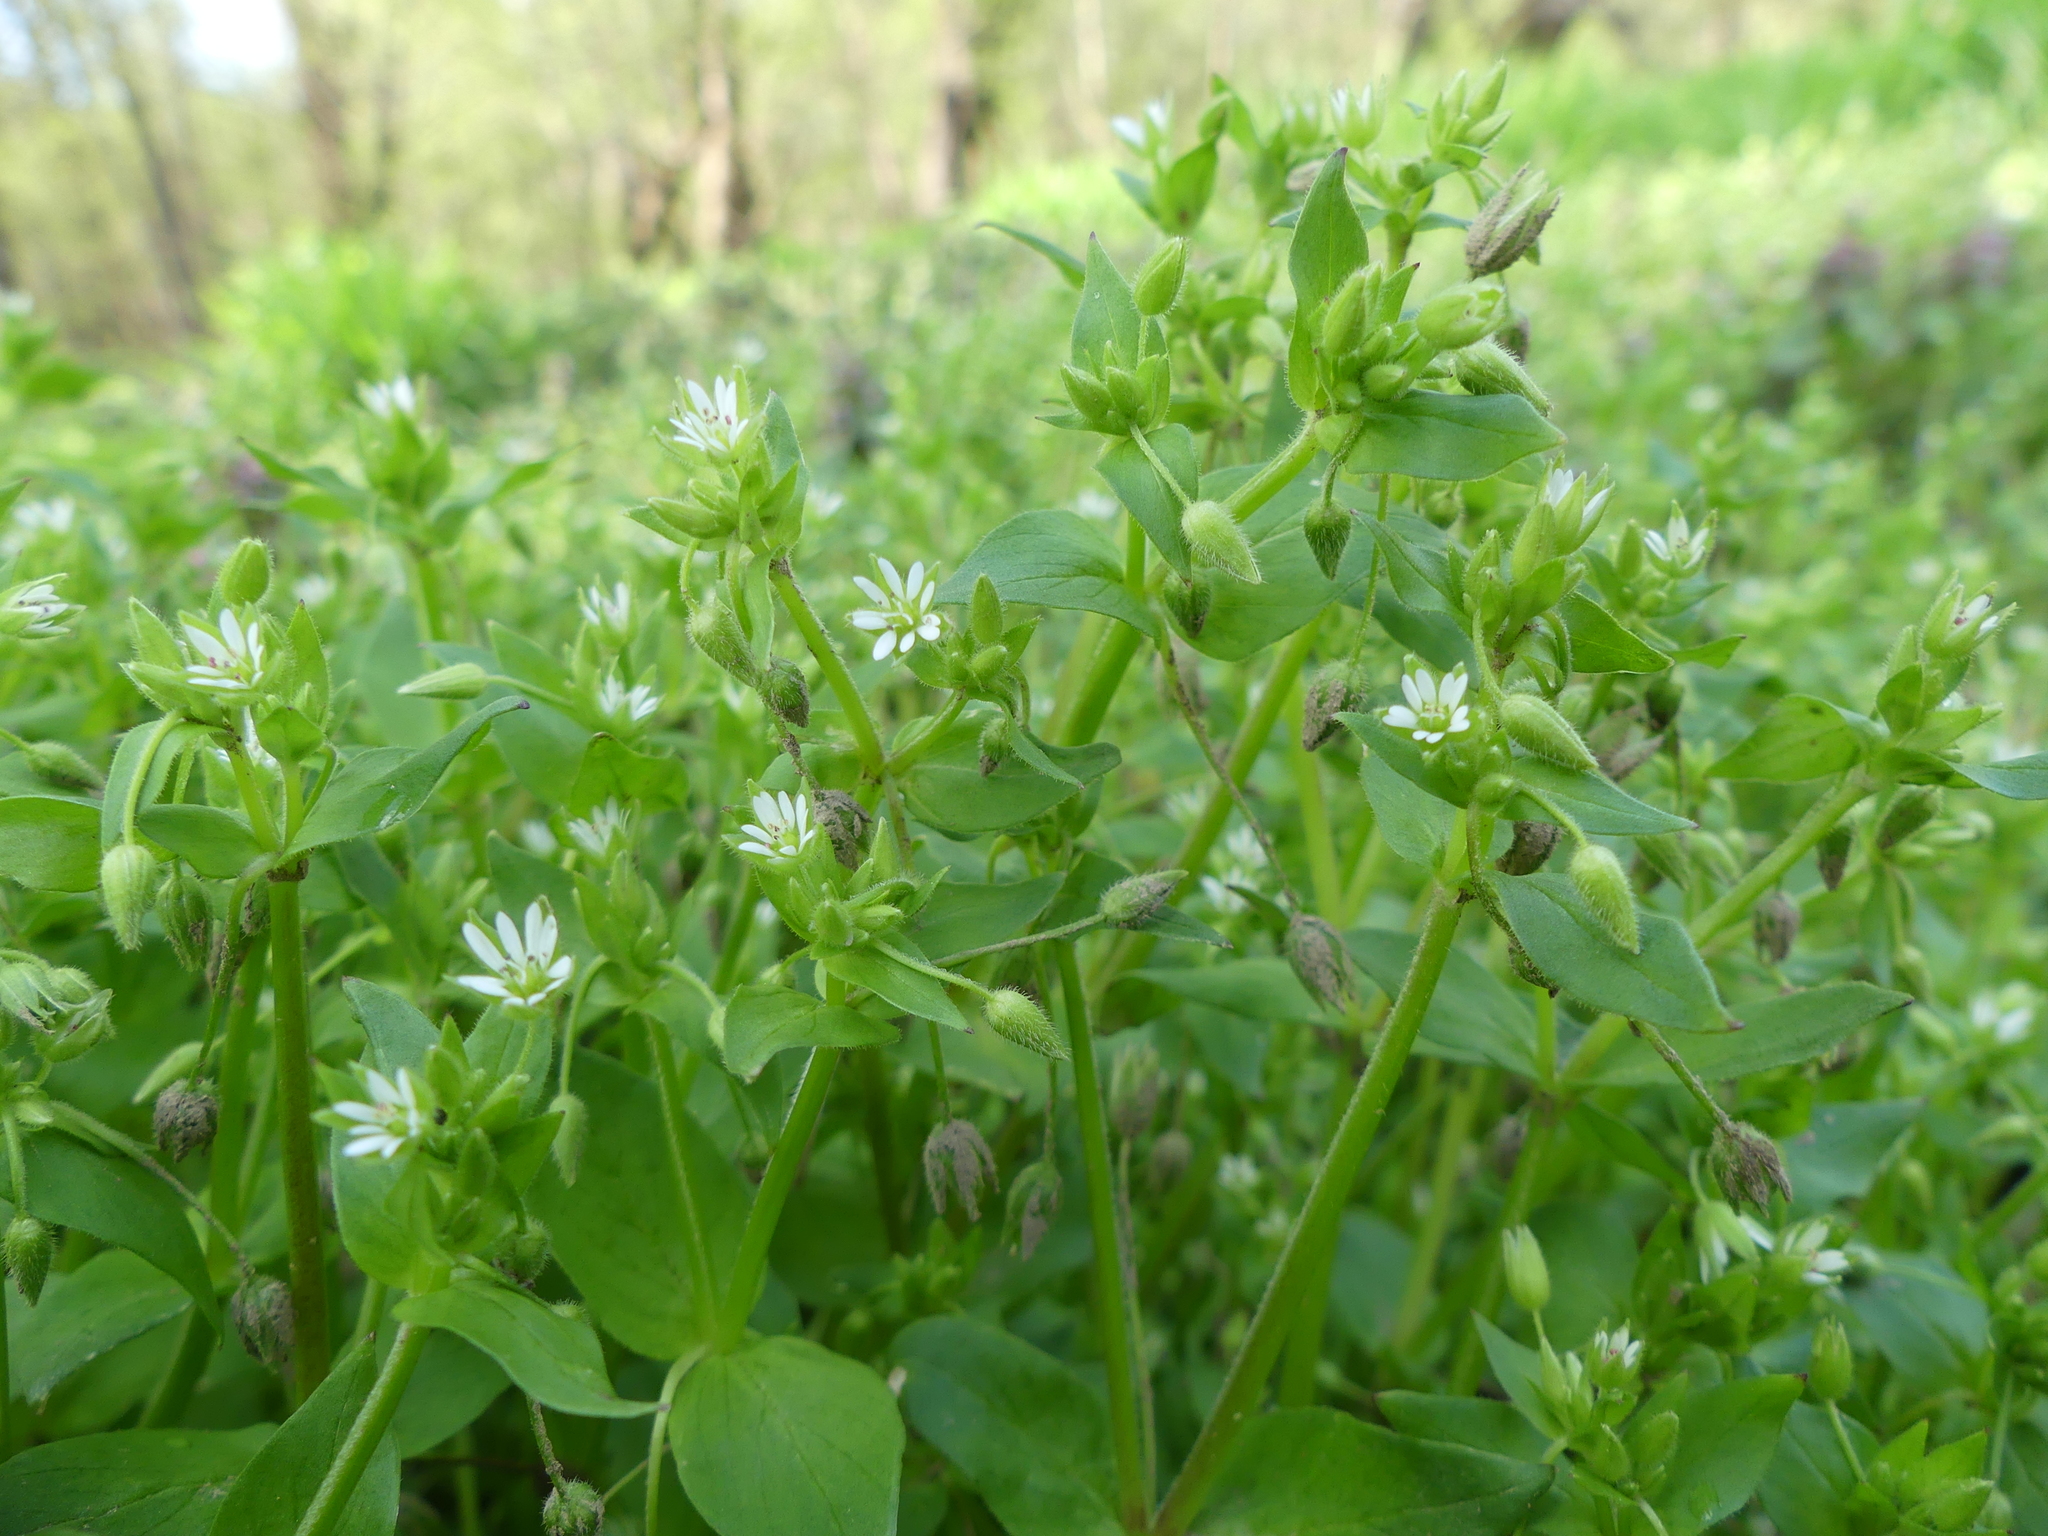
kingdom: Plantae
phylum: Tracheophyta
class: Magnoliopsida
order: Caryophyllales
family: Caryophyllaceae
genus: Stellaria
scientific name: Stellaria media
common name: Common chickweed
